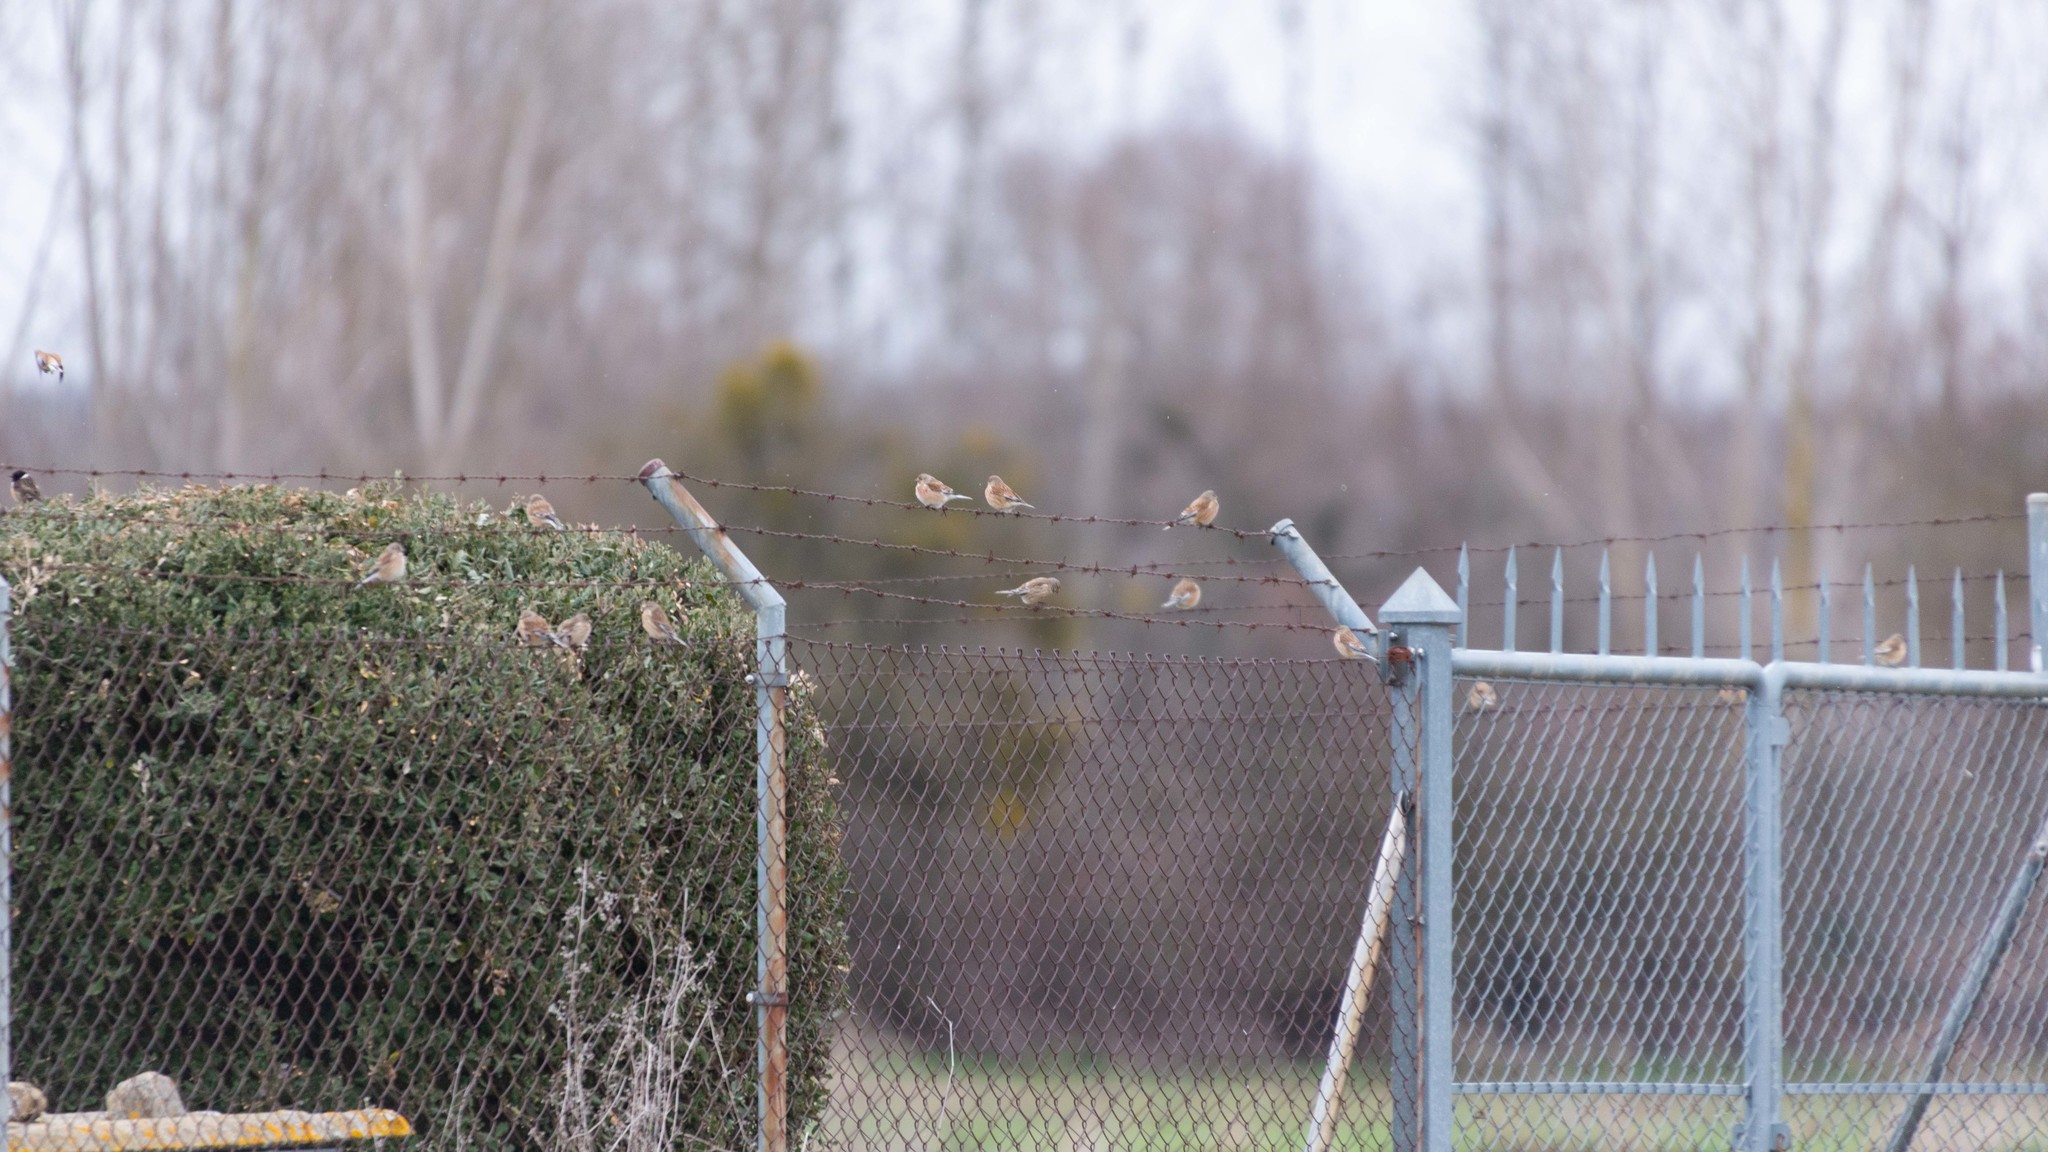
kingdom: Animalia
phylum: Chordata
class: Aves
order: Passeriformes
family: Fringillidae
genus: Linaria
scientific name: Linaria cannabina
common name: Common linnet
